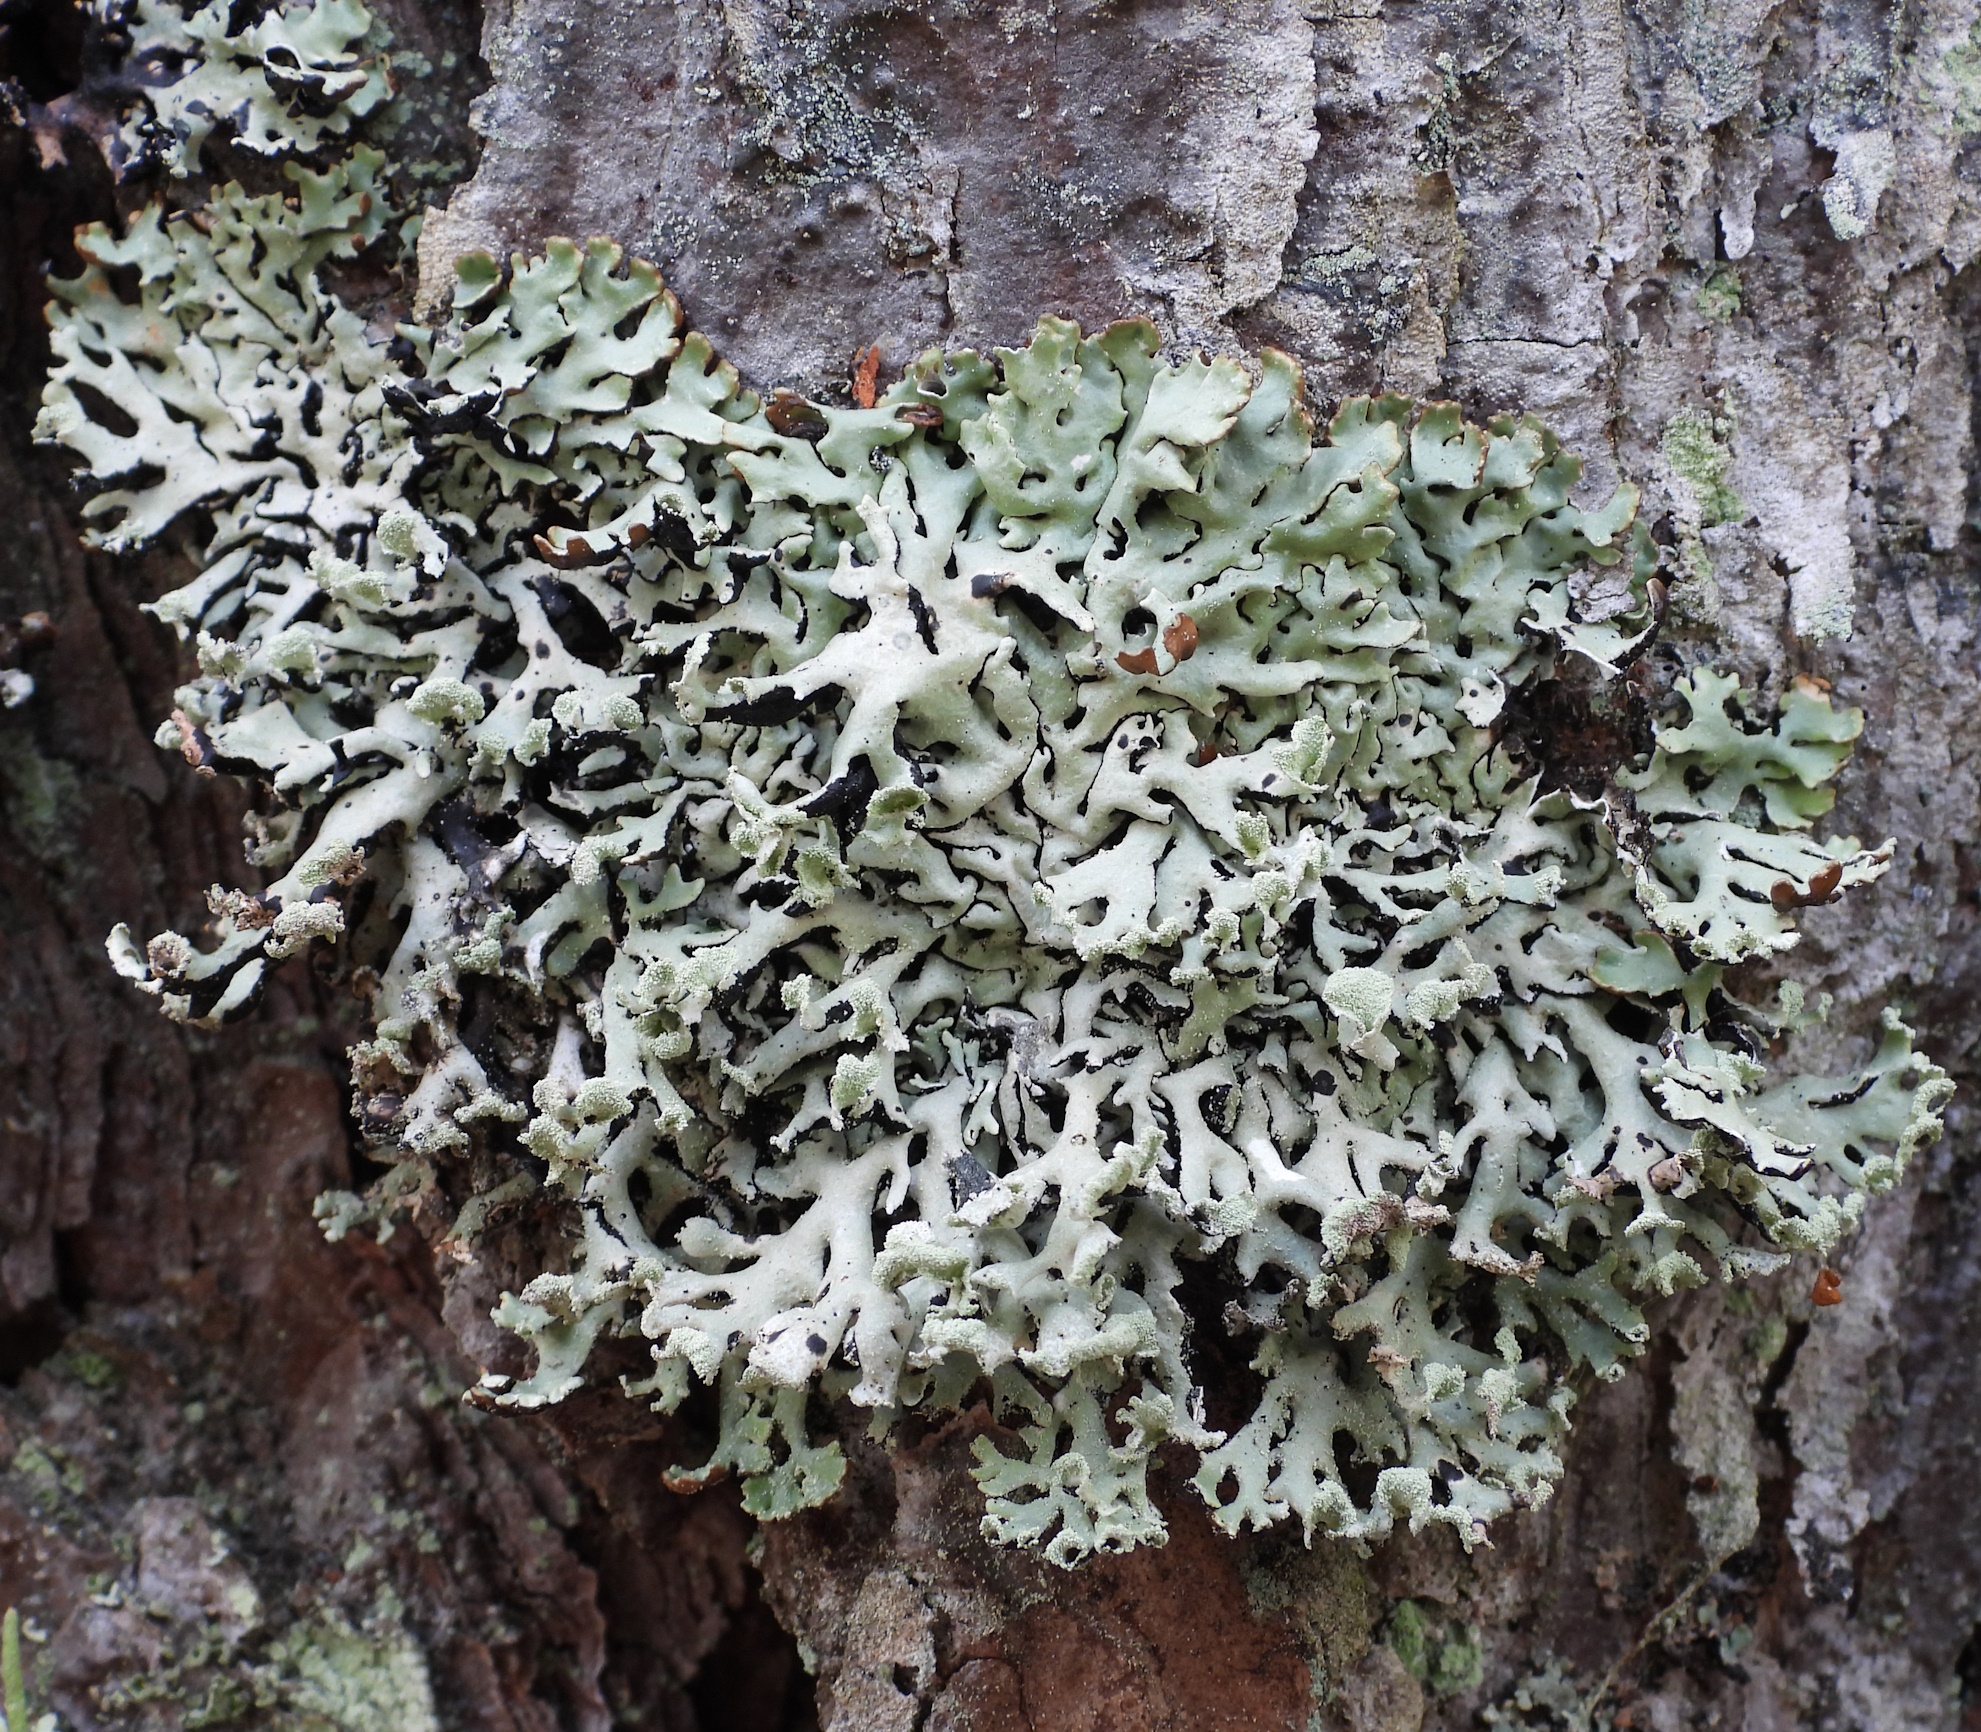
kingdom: Fungi
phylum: Ascomycota
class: Lecanoromycetes
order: Lecanorales
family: Parmeliaceae
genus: Hypogymnia
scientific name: Hypogymnia physodes
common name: Dark crottle
